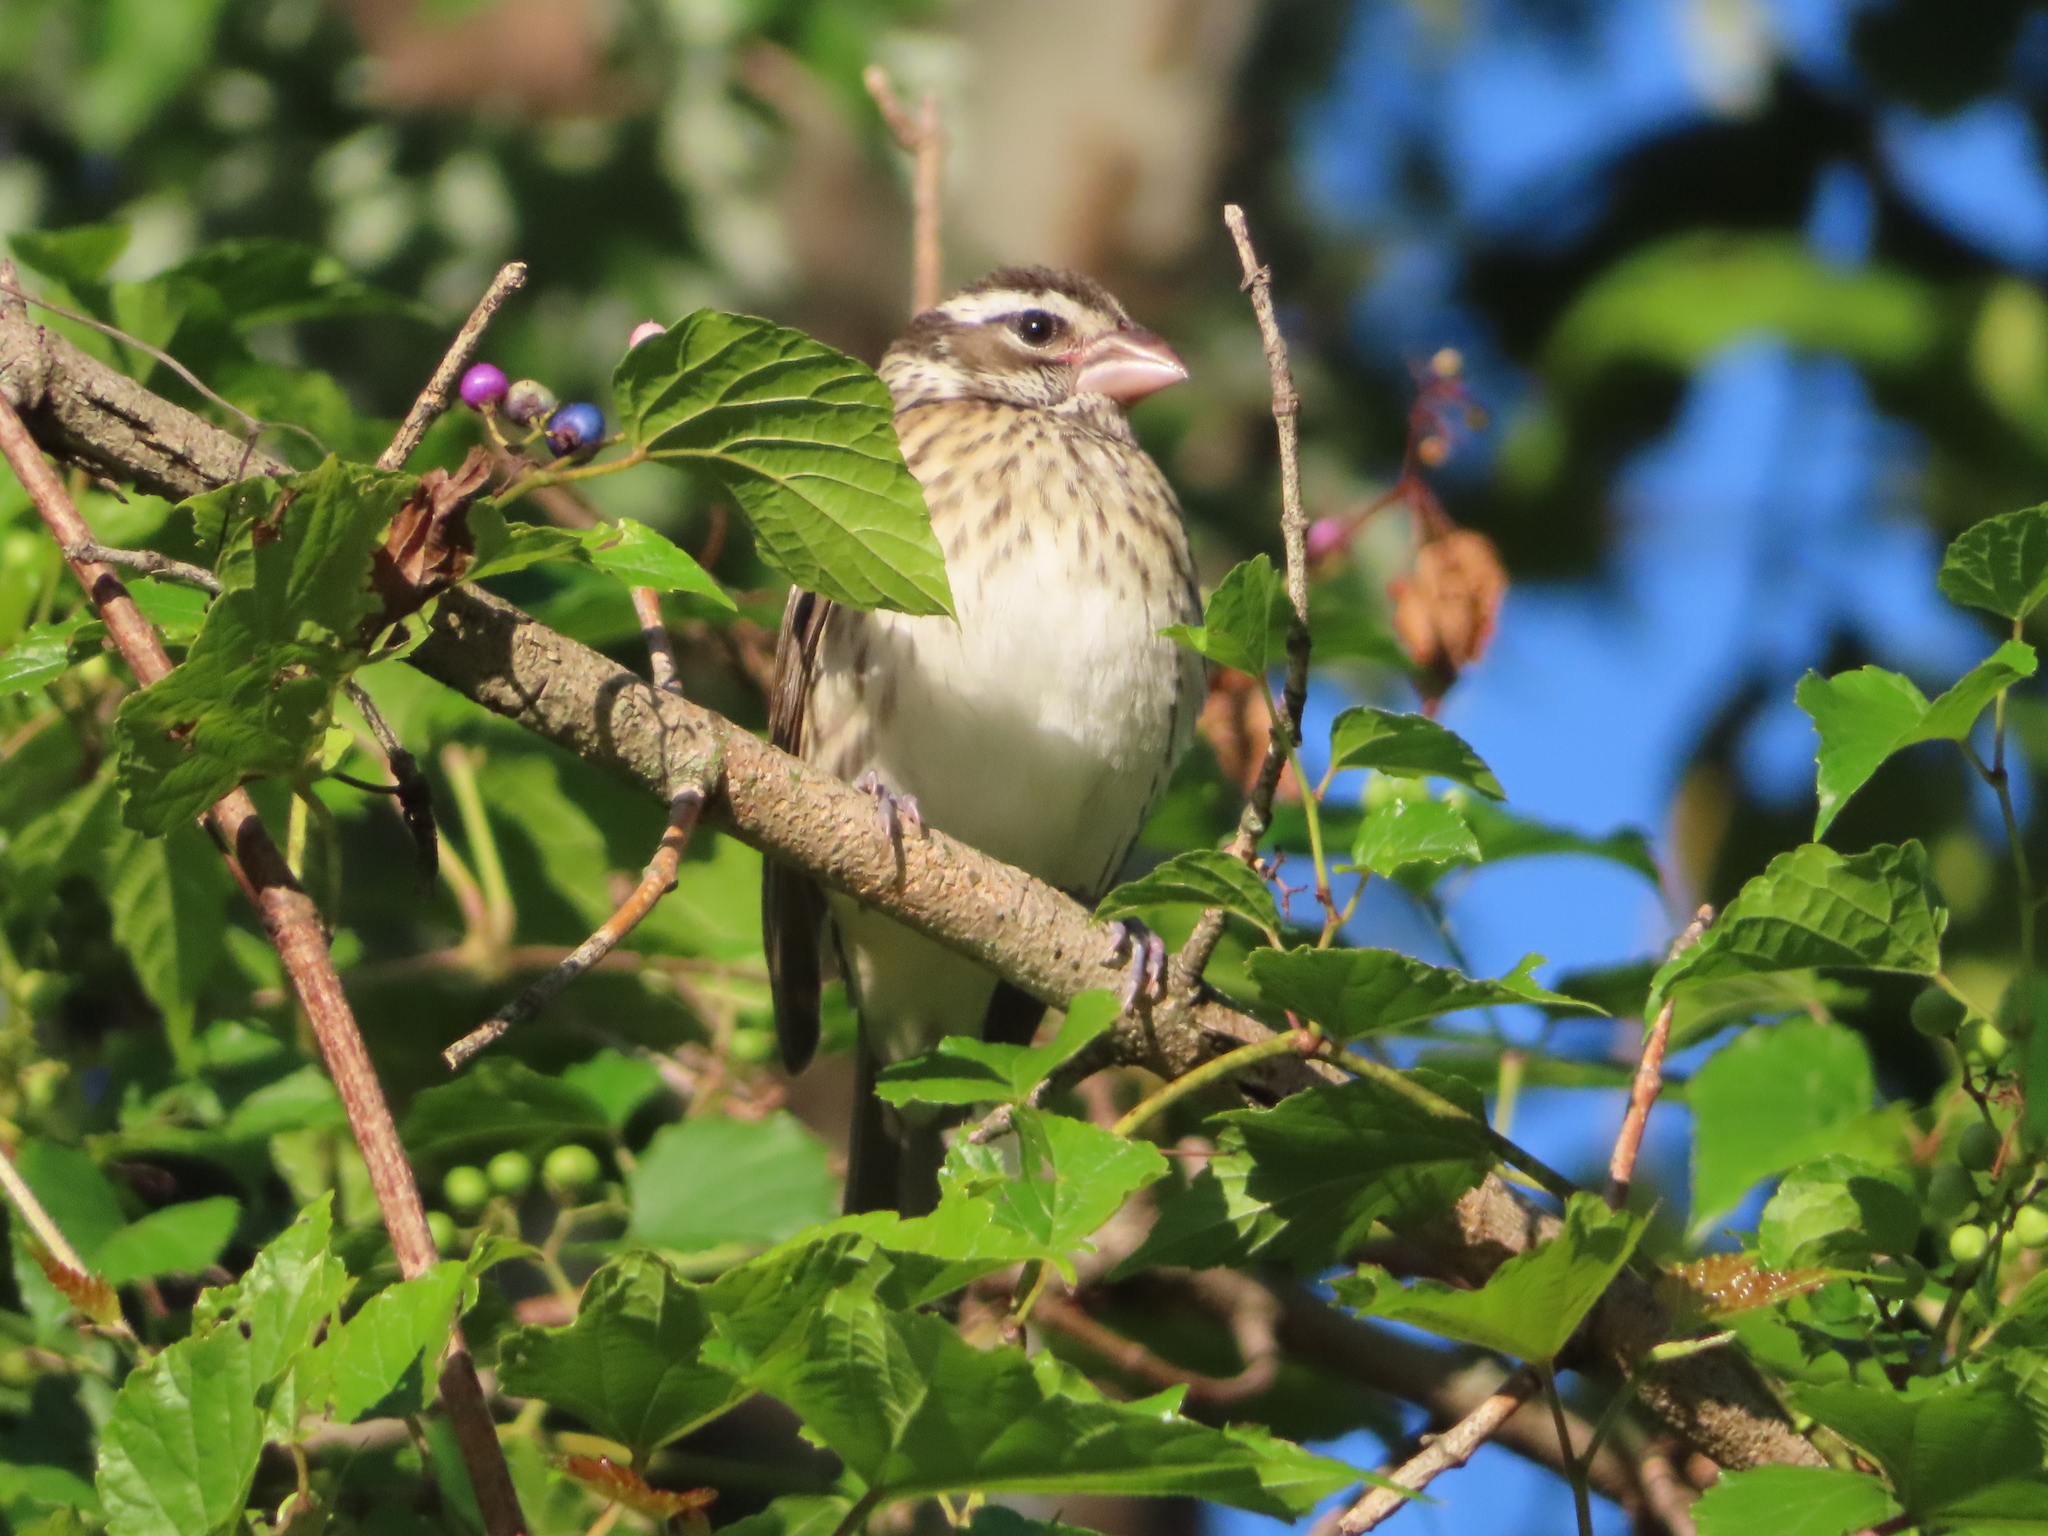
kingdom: Animalia
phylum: Chordata
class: Aves
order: Passeriformes
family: Cardinalidae
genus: Pheucticus
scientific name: Pheucticus ludovicianus
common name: Rose-breasted grosbeak
